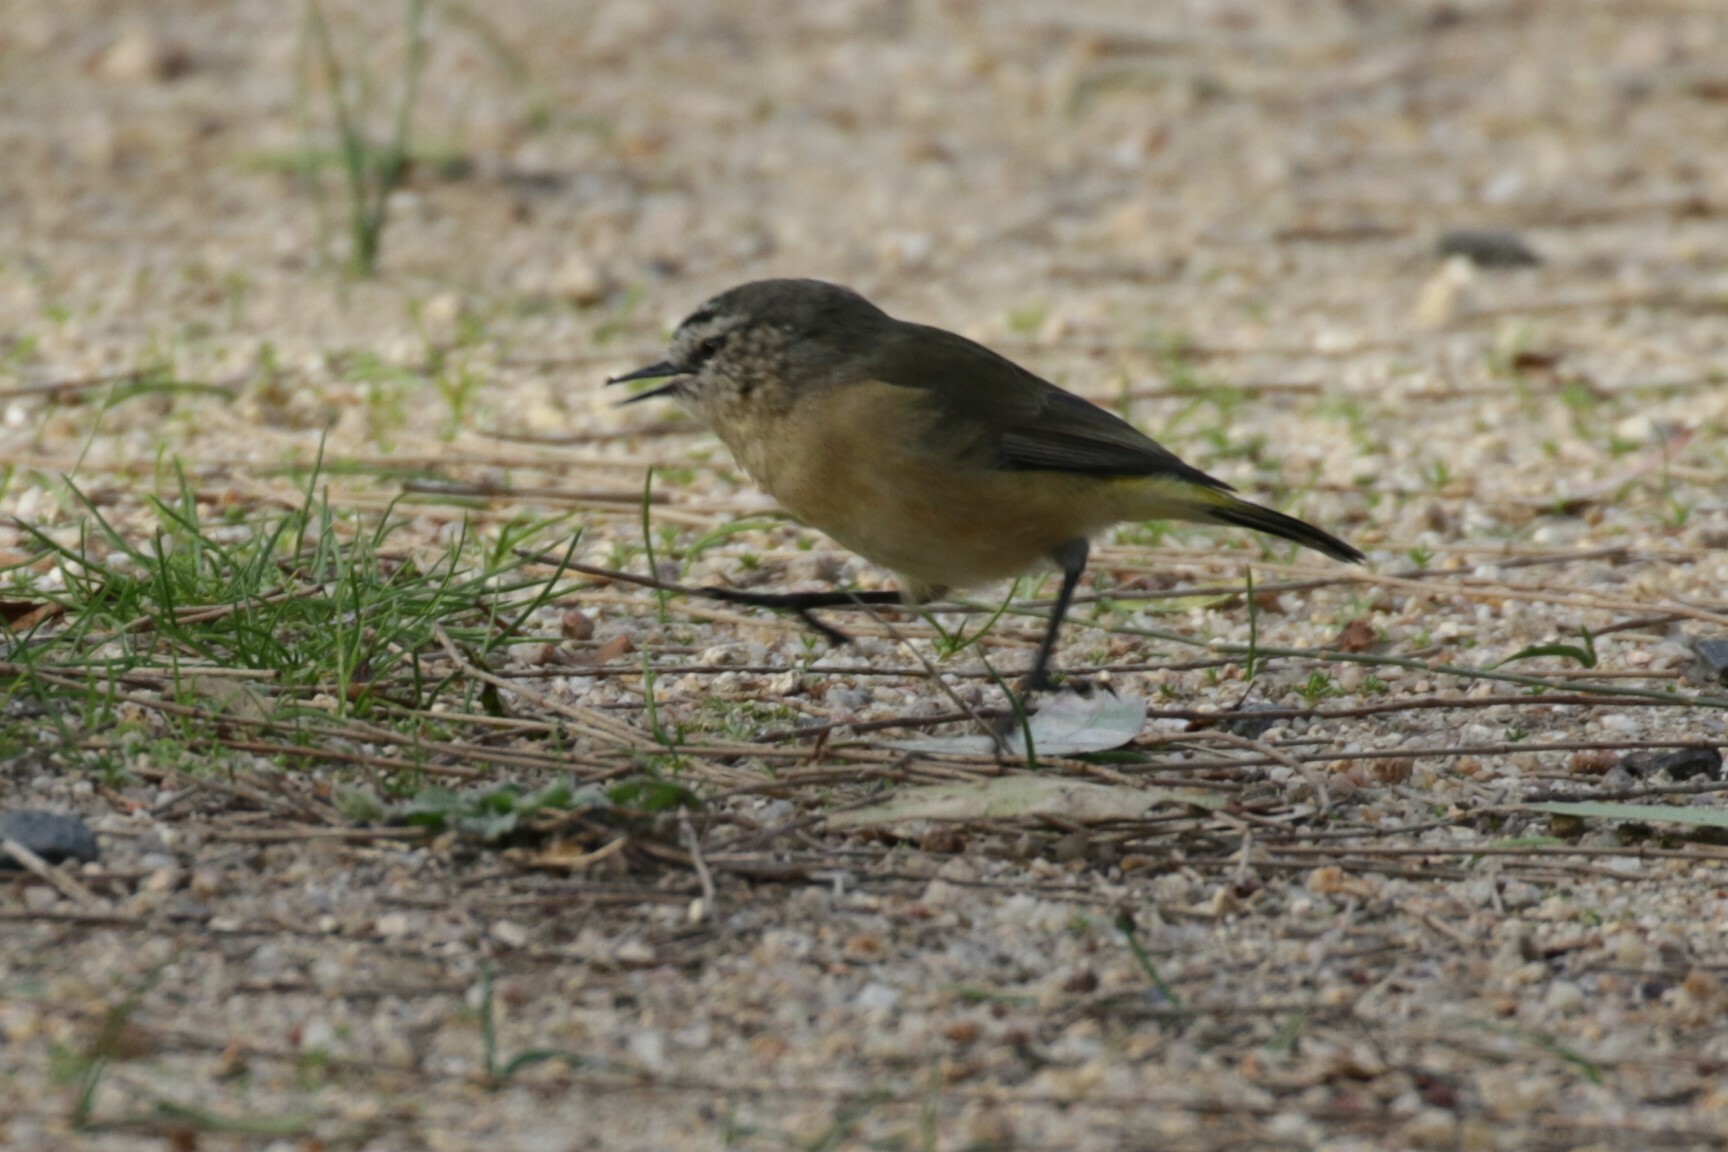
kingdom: Animalia
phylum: Chordata
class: Aves
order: Passeriformes
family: Acanthizidae
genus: Acanthiza
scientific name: Acanthiza chrysorrhoa
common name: Yellow-rumped thornbill
